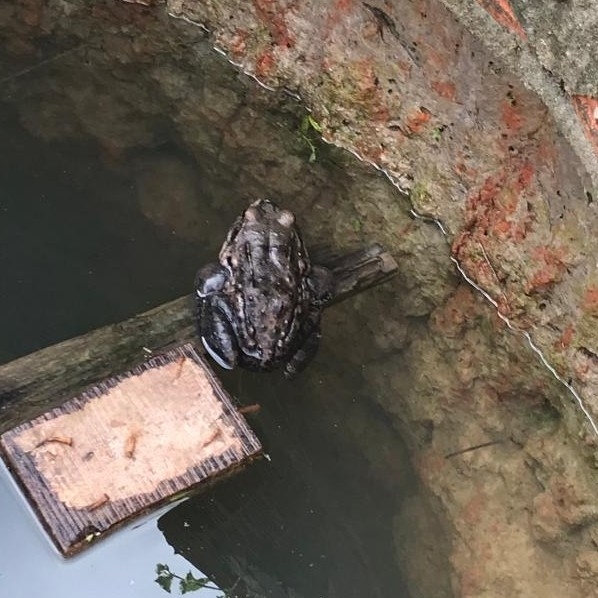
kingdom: Animalia
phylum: Chordata
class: Amphibia
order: Anura
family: Leptodactylidae
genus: Leptodactylus
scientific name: Leptodactylus vastus
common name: Northeastern pepper frog
